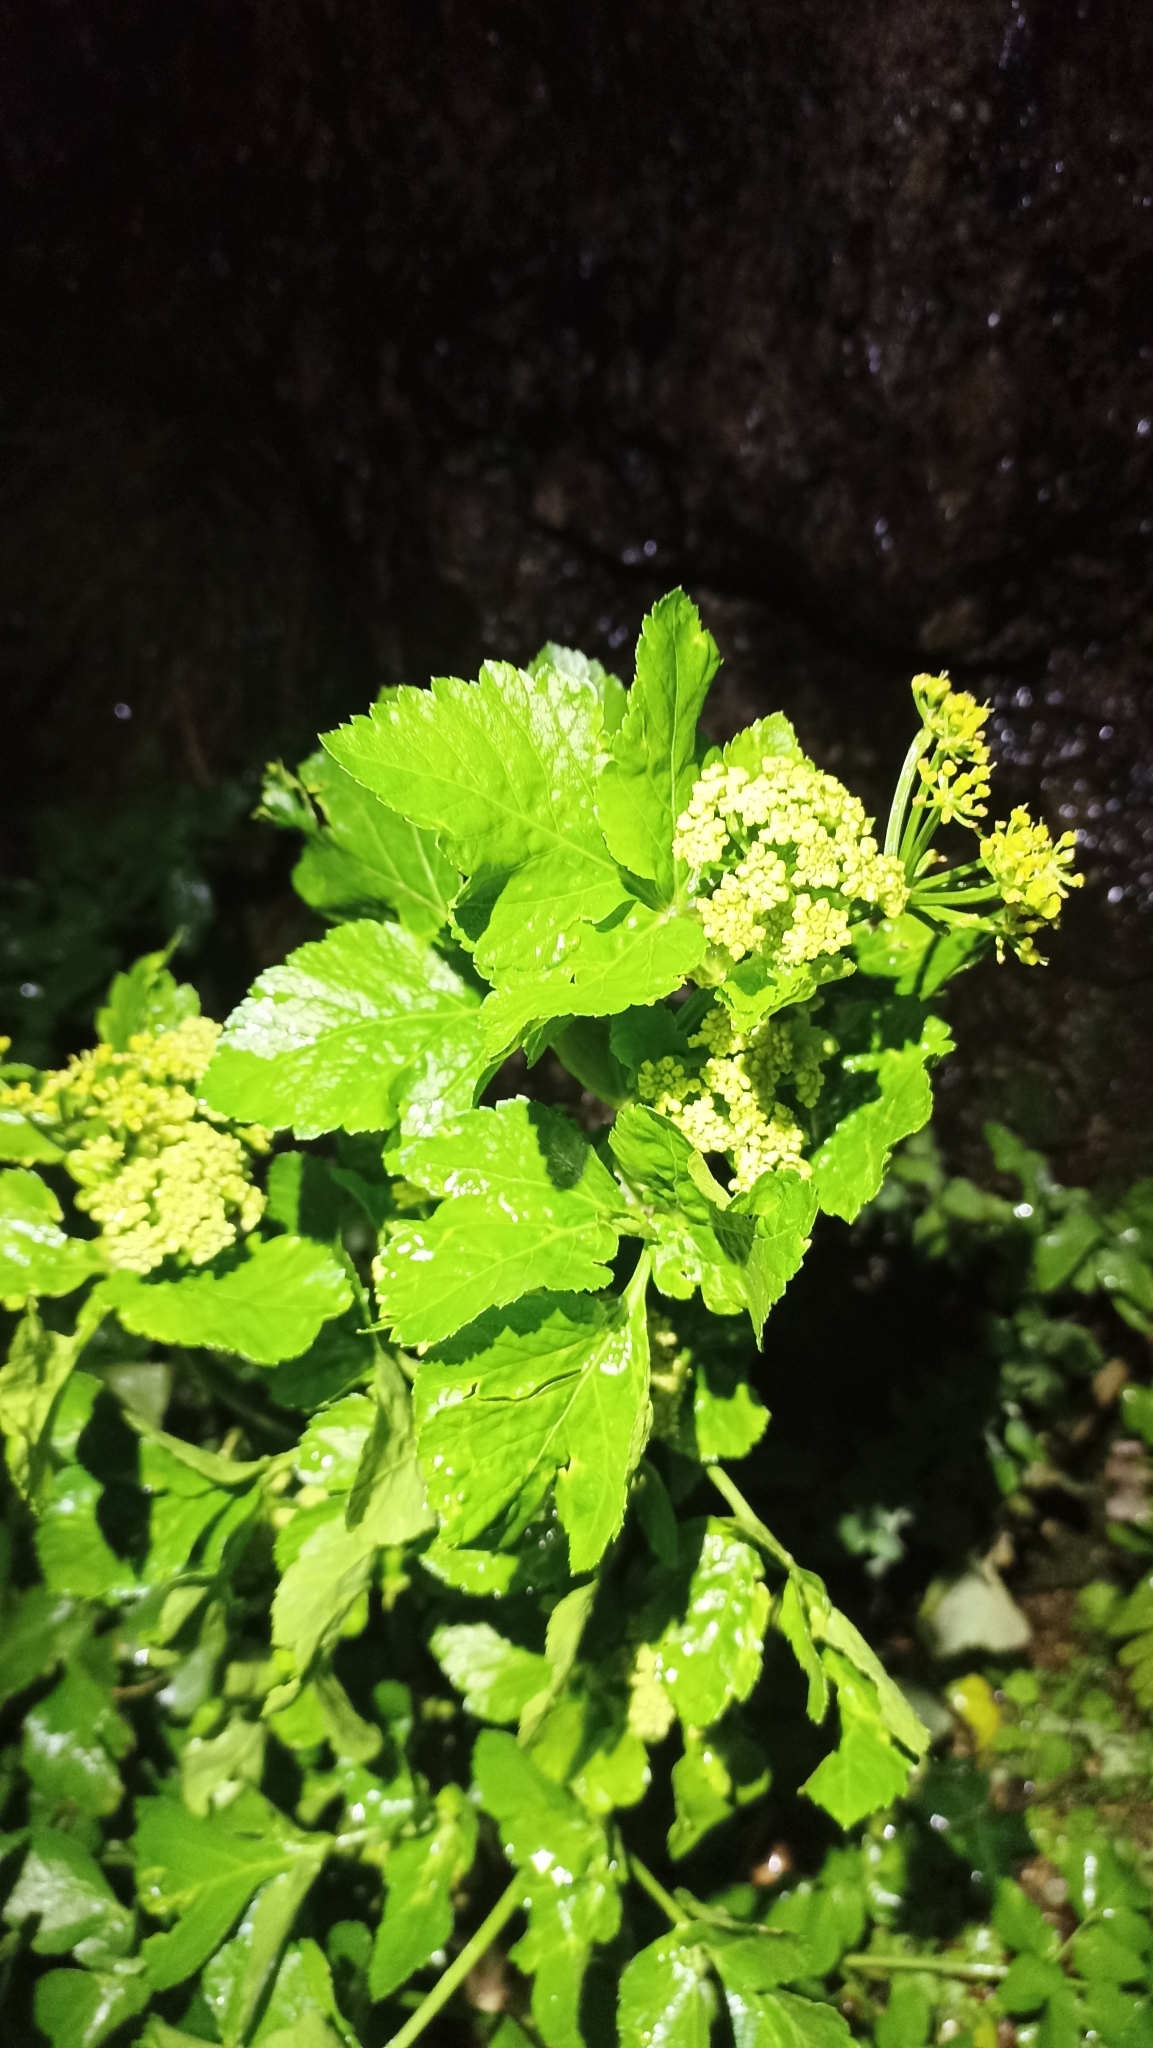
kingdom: Plantae
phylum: Tracheophyta
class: Magnoliopsida
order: Apiales
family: Apiaceae
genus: Smyrnium
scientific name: Smyrnium olusatrum
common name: Alexanders
